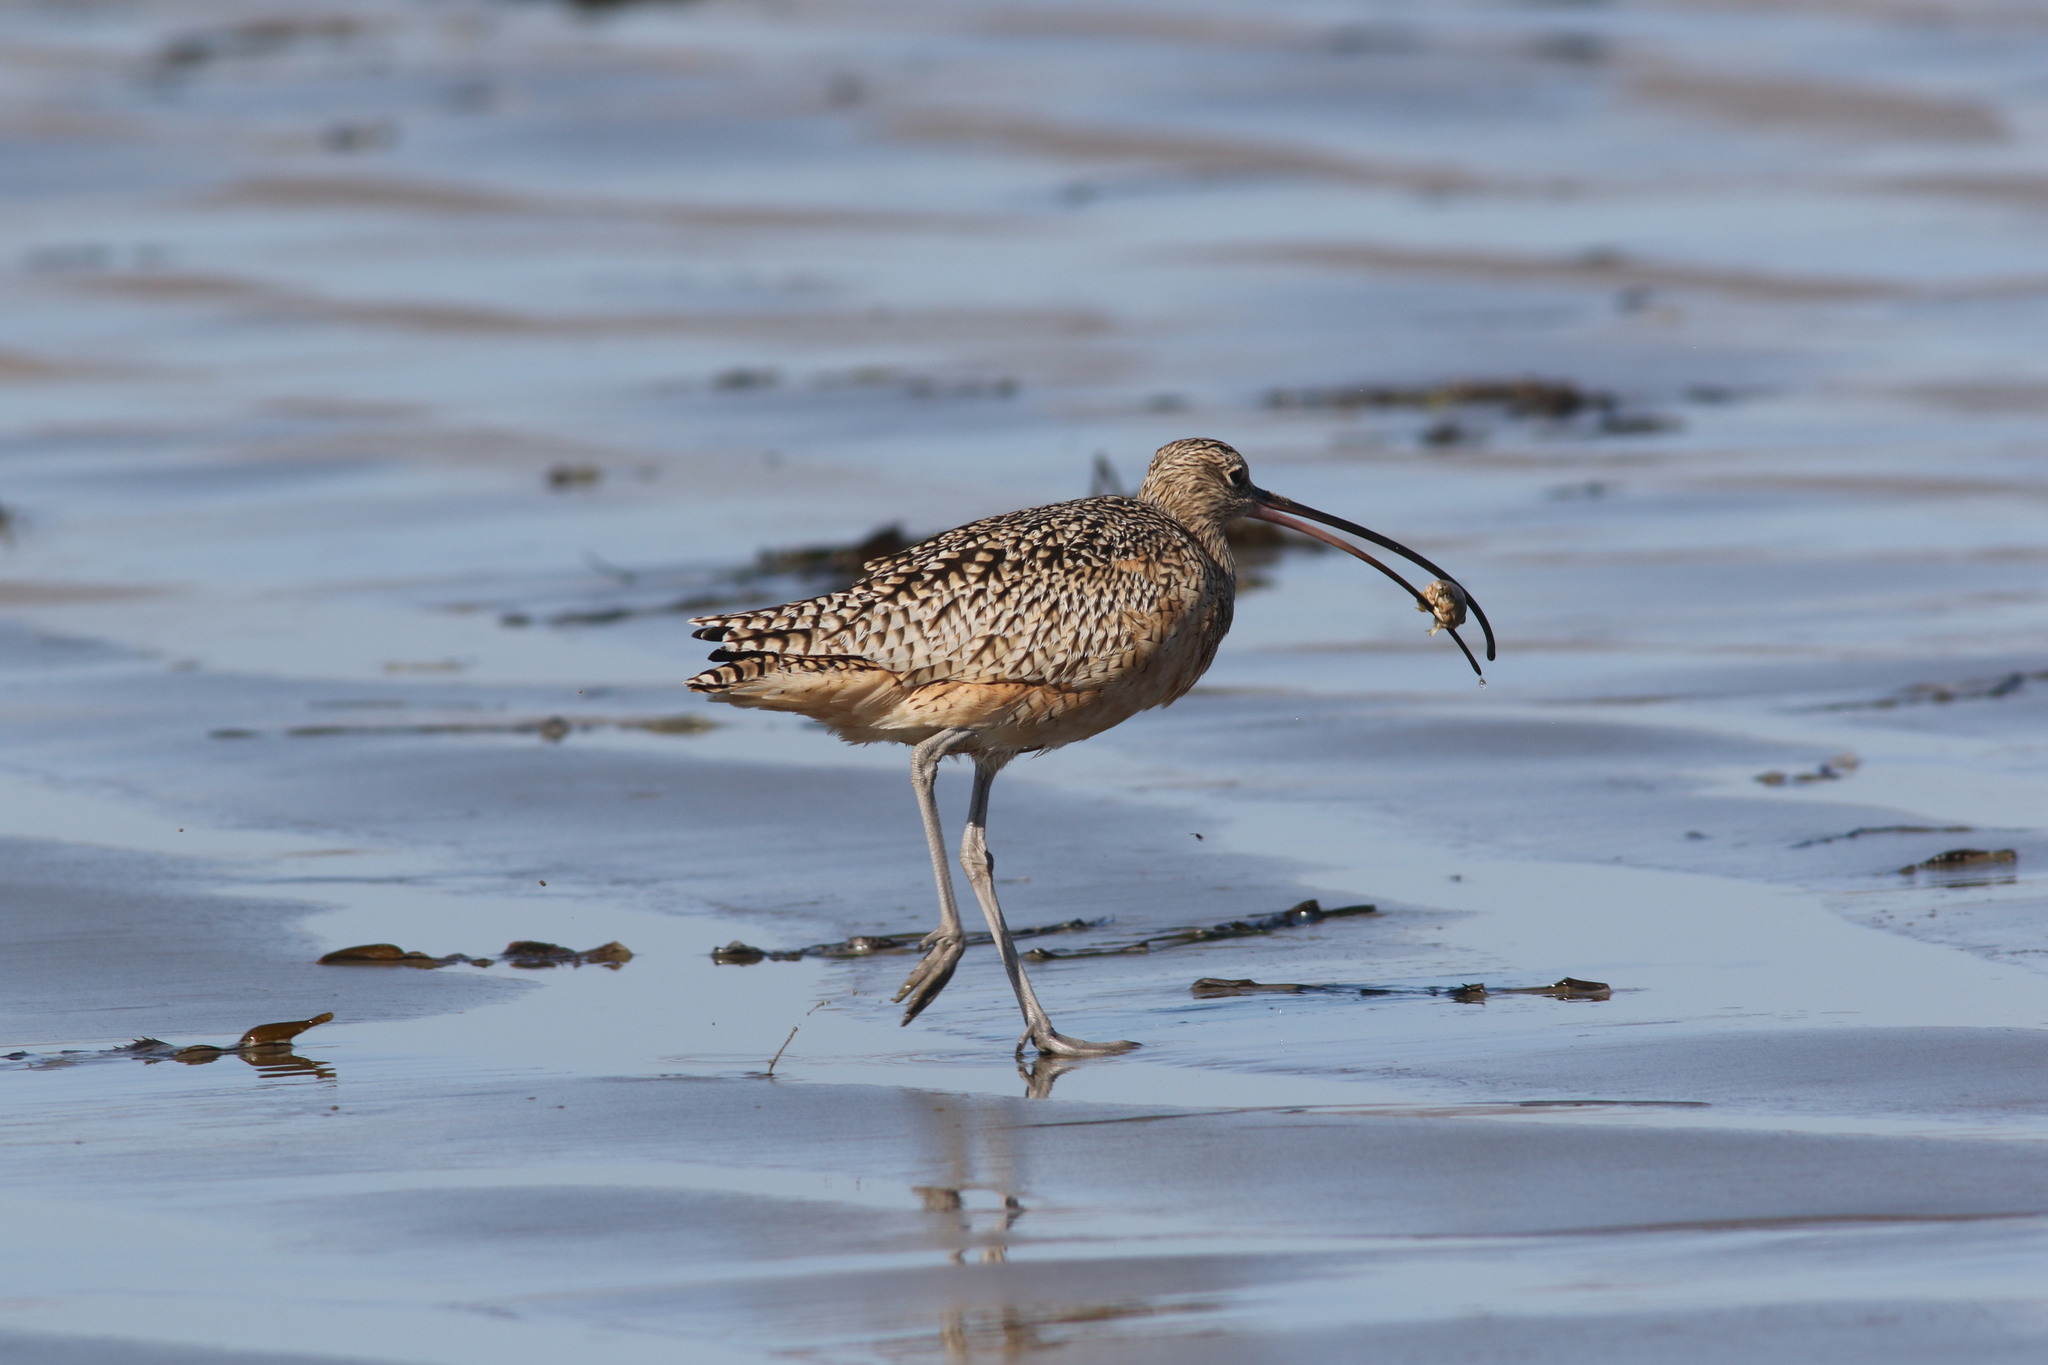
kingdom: Animalia
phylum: Chordata
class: Aves
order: Charadriiformes
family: Scolopacidae
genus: Numenius
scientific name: Numenius americanus
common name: Long-billed curlew
